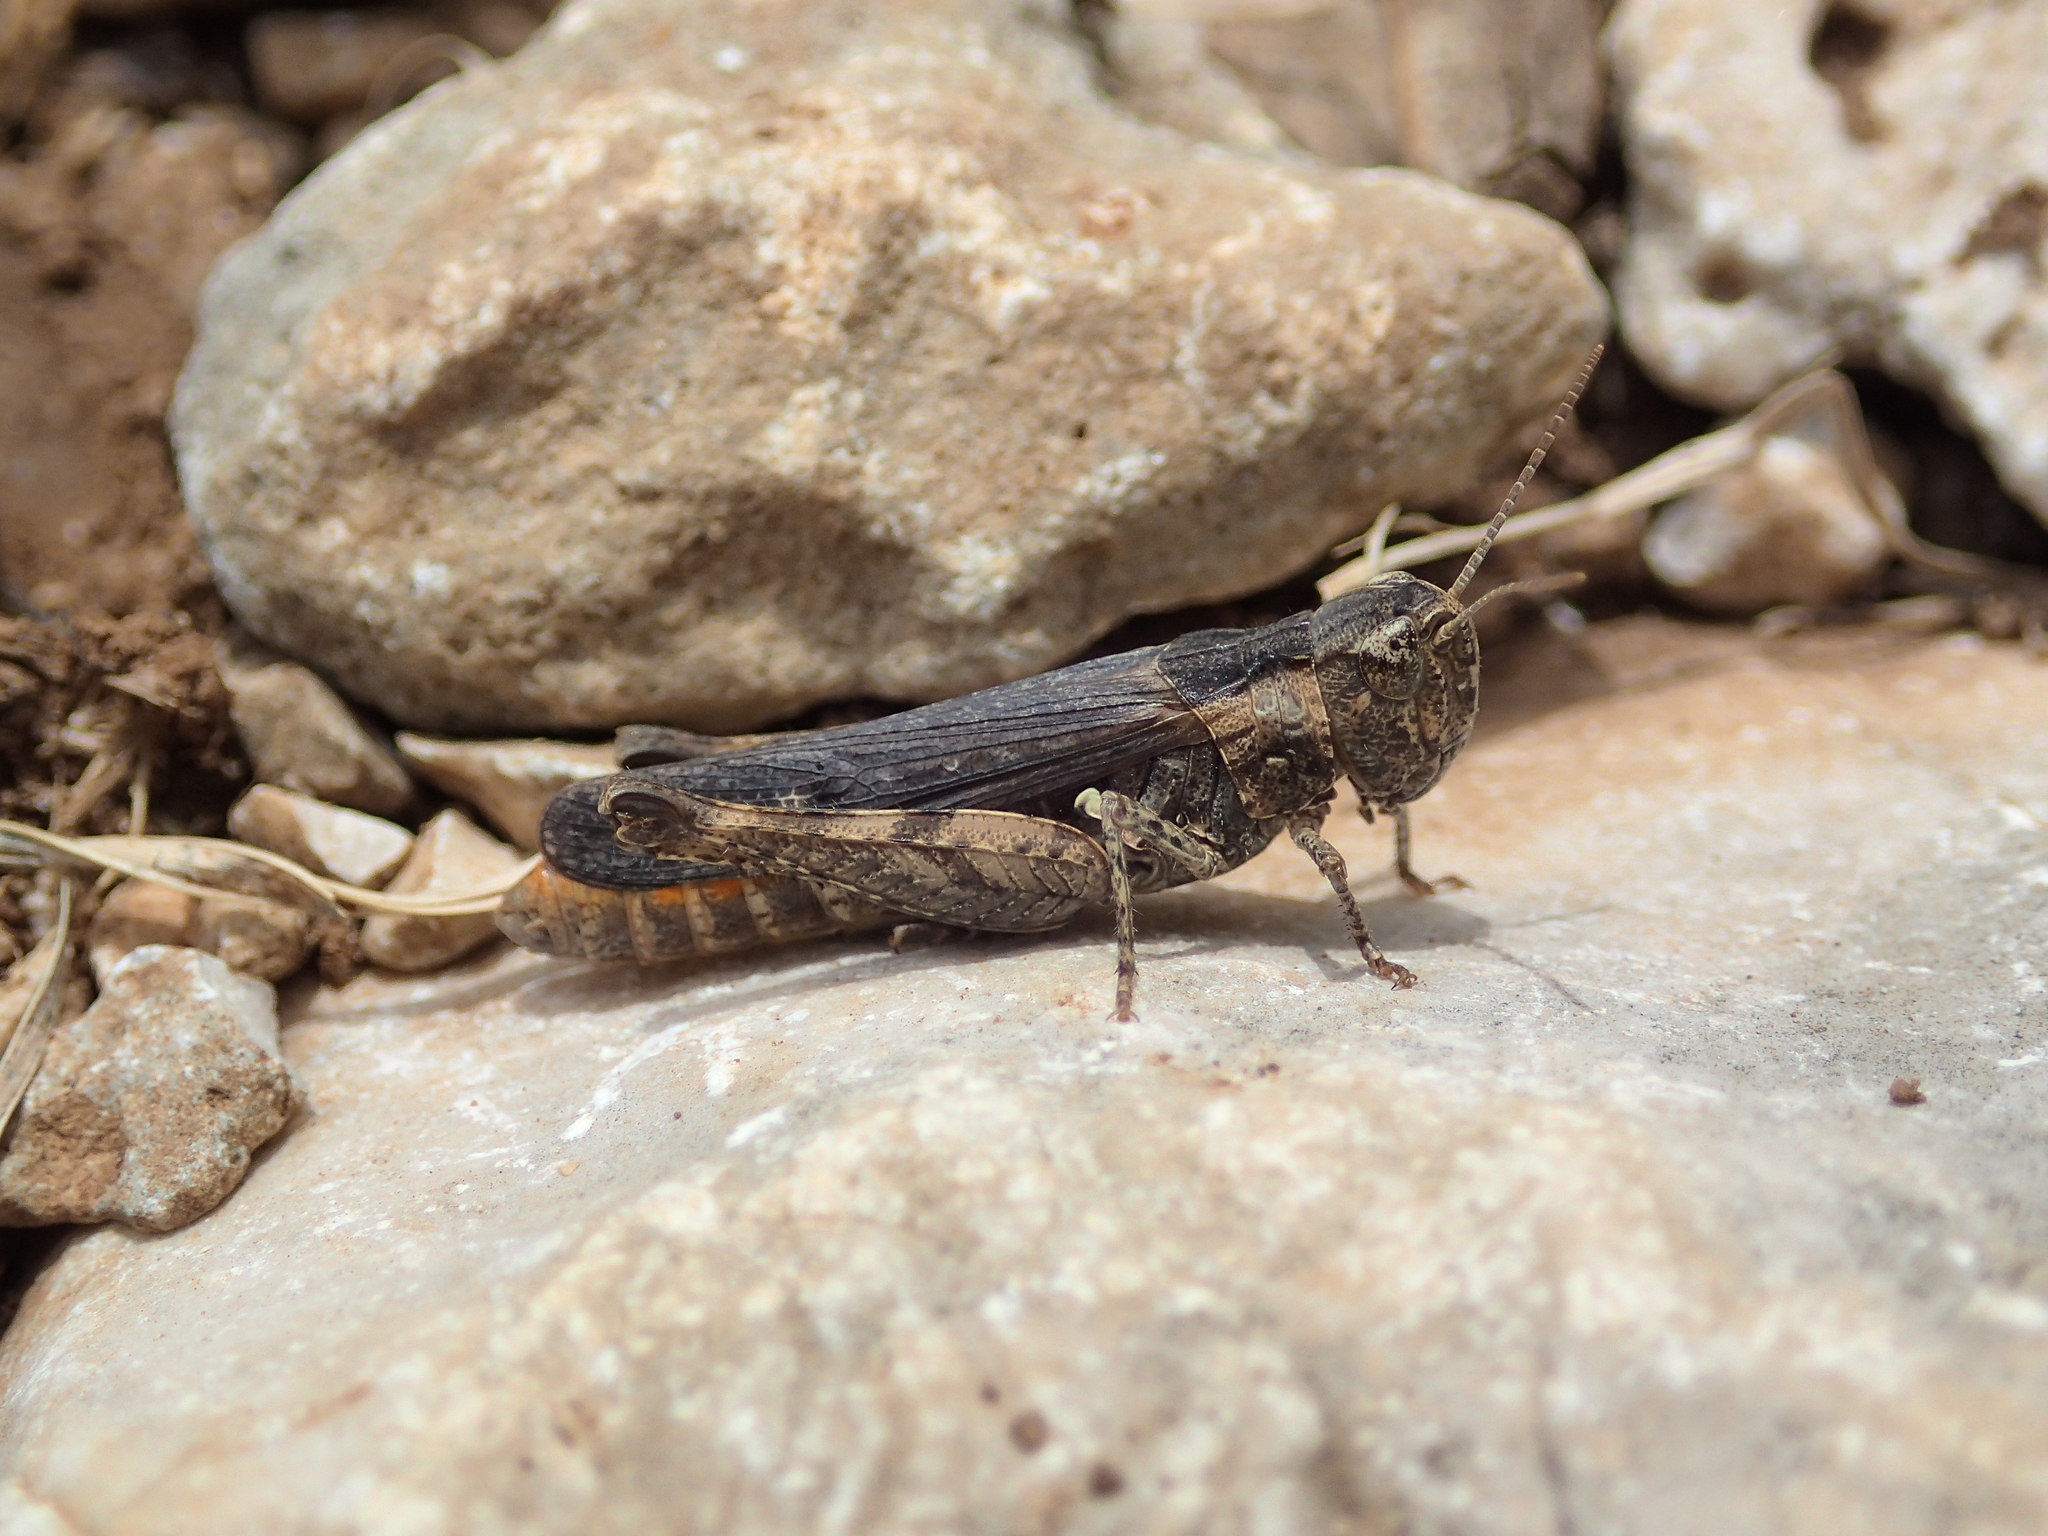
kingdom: Animalia
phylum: Arthropoda
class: Insecta
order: Orthoptera
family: Acrididae
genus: Omocestus
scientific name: Omocestus raymondi
